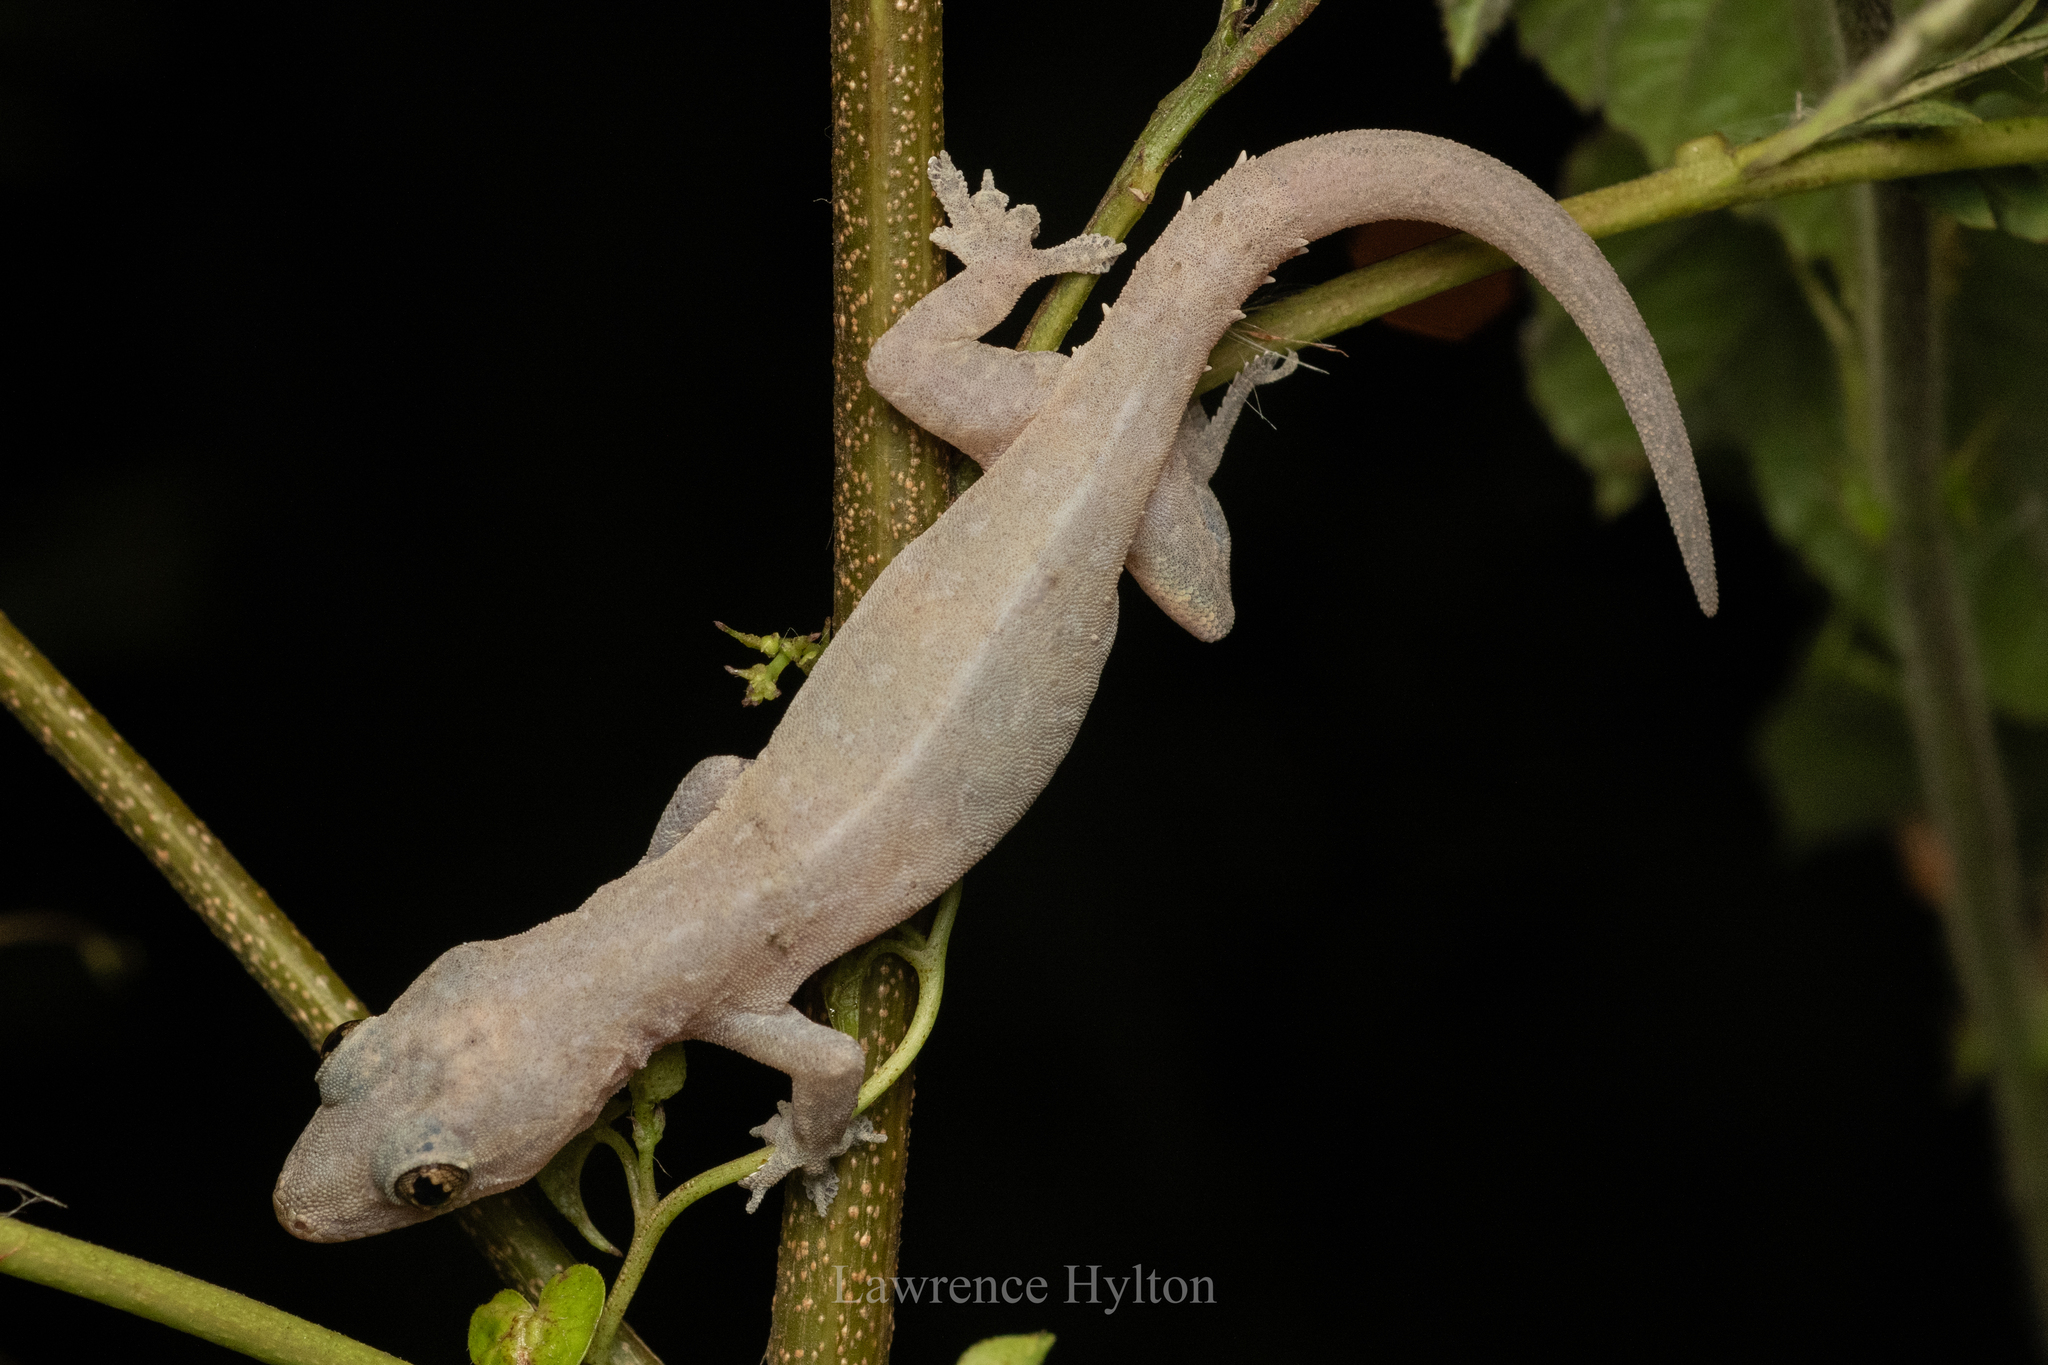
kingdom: Animalia
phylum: Chordata
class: Squamata
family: Gekkonidae
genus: Hemidactylus
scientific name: Hemidactylus frenatus
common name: Common house gecko
